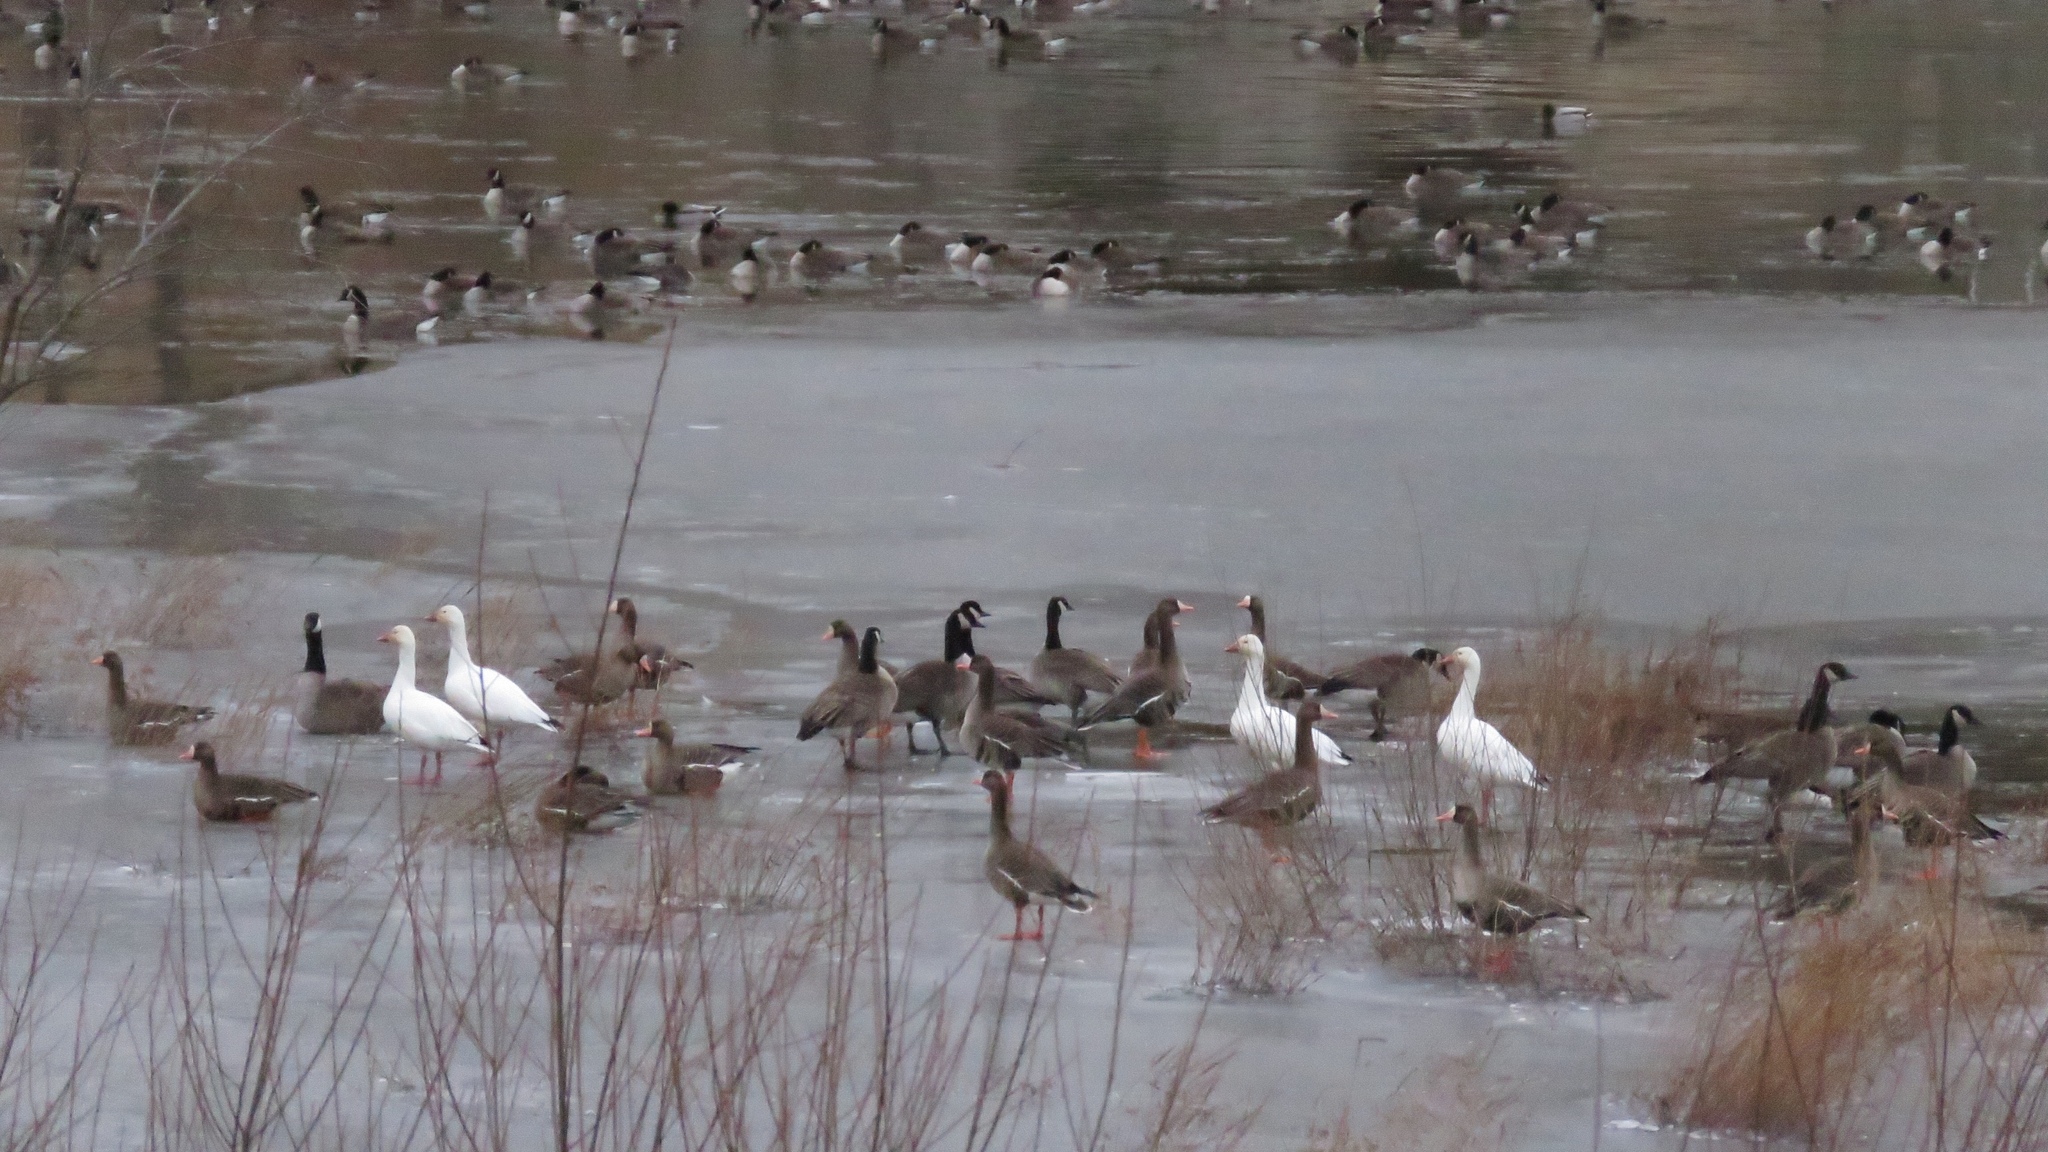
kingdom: Animalia
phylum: Chordata
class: Aves
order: Anseriformes
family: Anatidae
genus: Anser
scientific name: Anser albifrons
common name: Greater white-fronted goose
